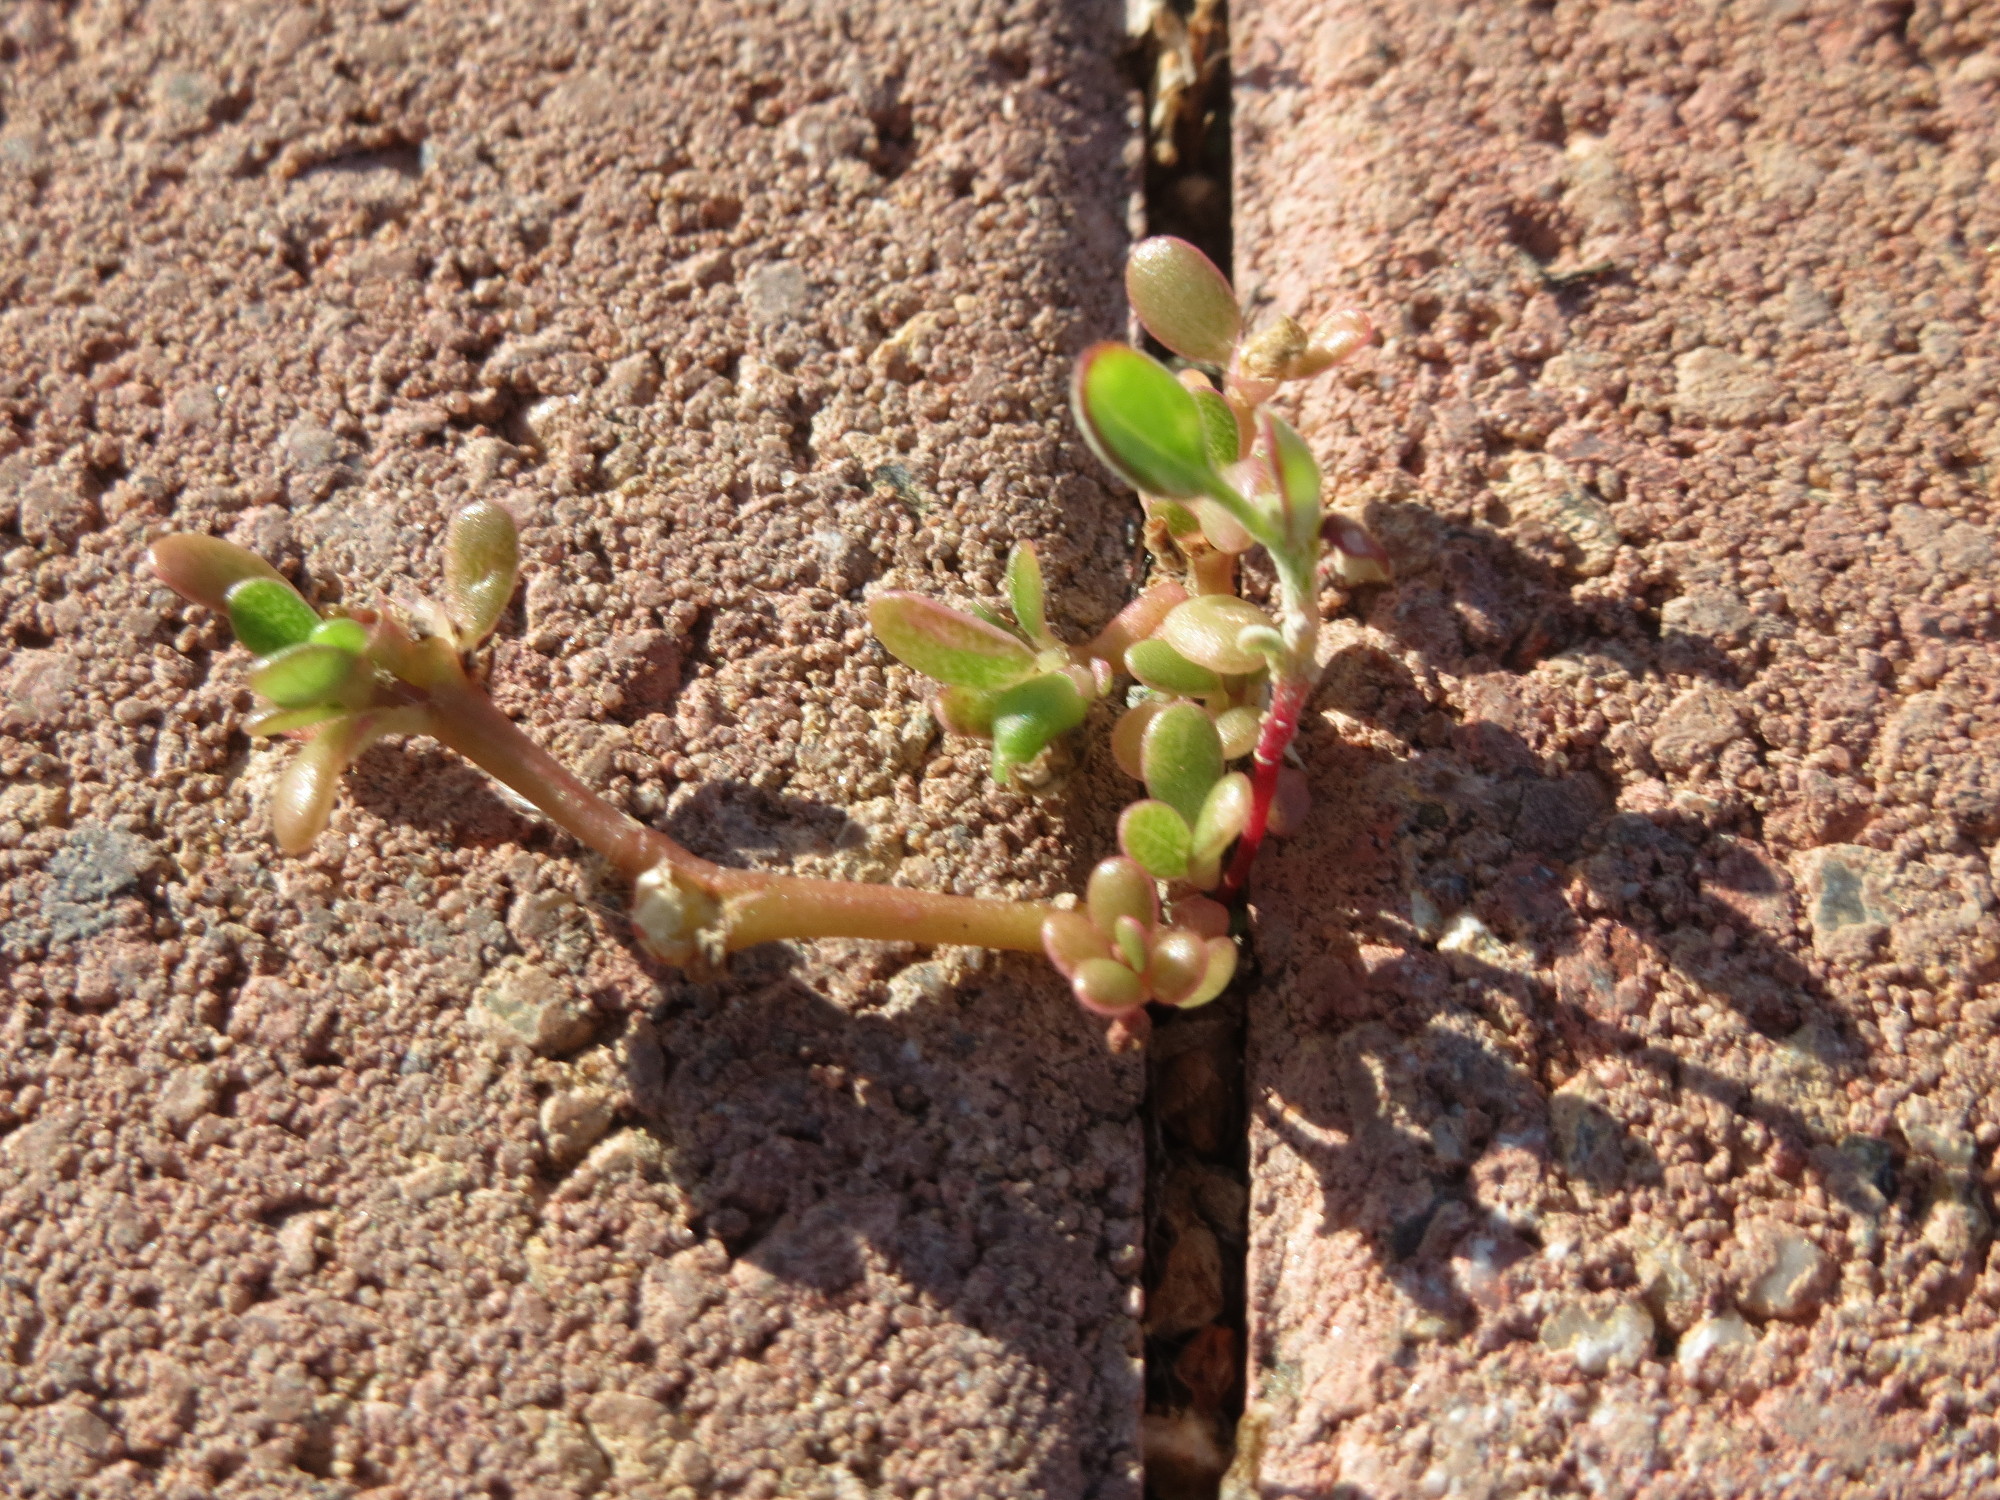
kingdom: Plantae
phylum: Tracheophyta
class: Magnoliopsida
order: Caryophyllales
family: Portulacaceae
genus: Portulaca
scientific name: Portulaca oleracea
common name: Common purslane
